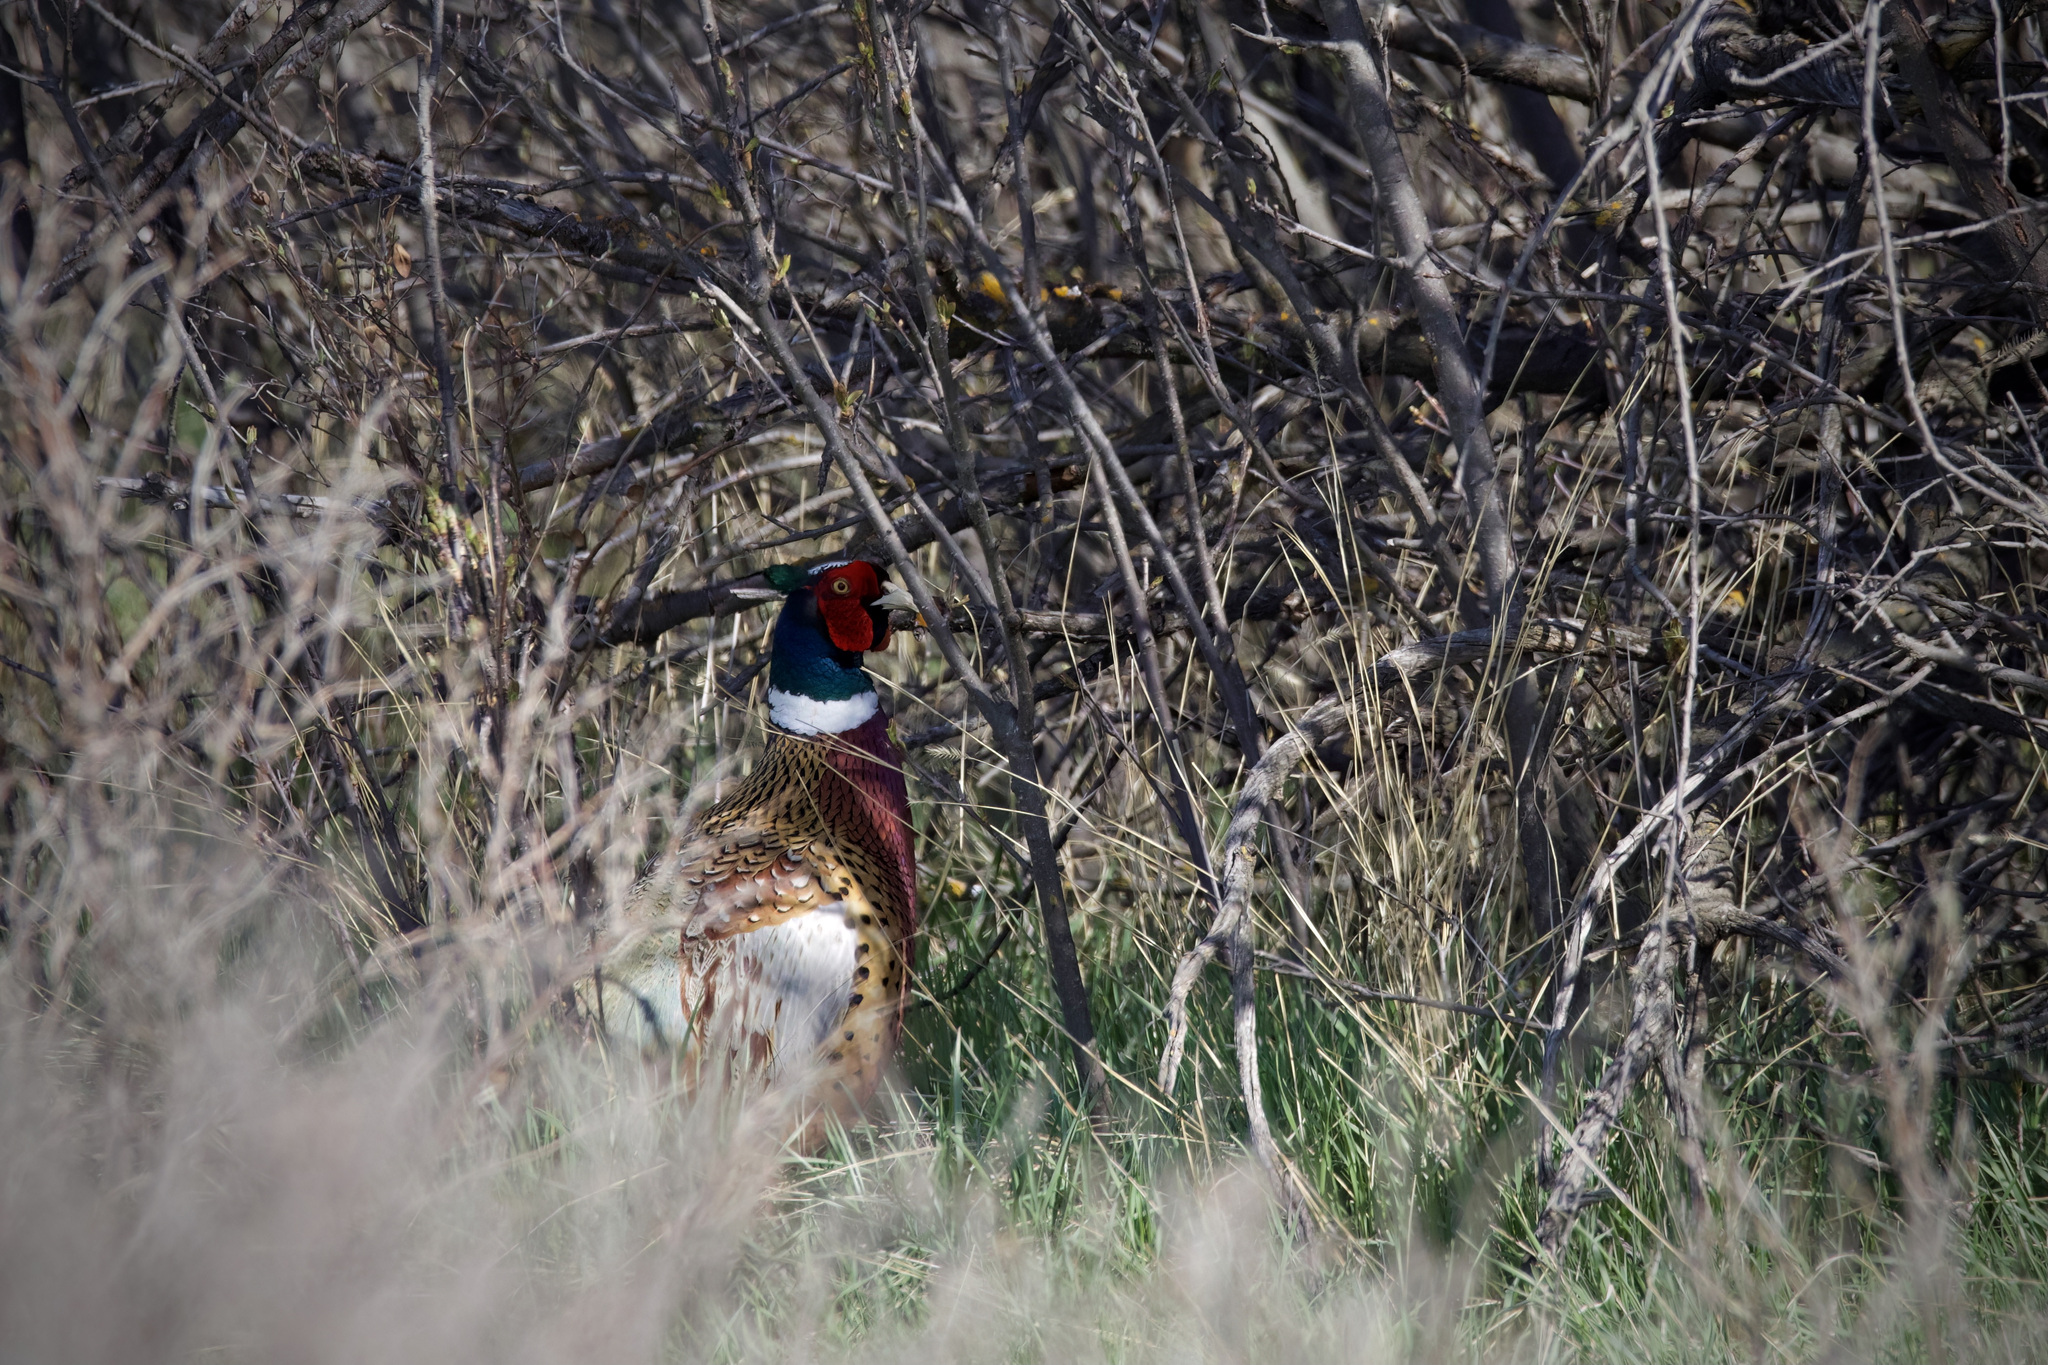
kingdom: Animalia
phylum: Chordata
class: Aves
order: Galliformes
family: Phasianidae
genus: Phasianus
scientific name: Phasianus colchicus
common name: Common pheasant
